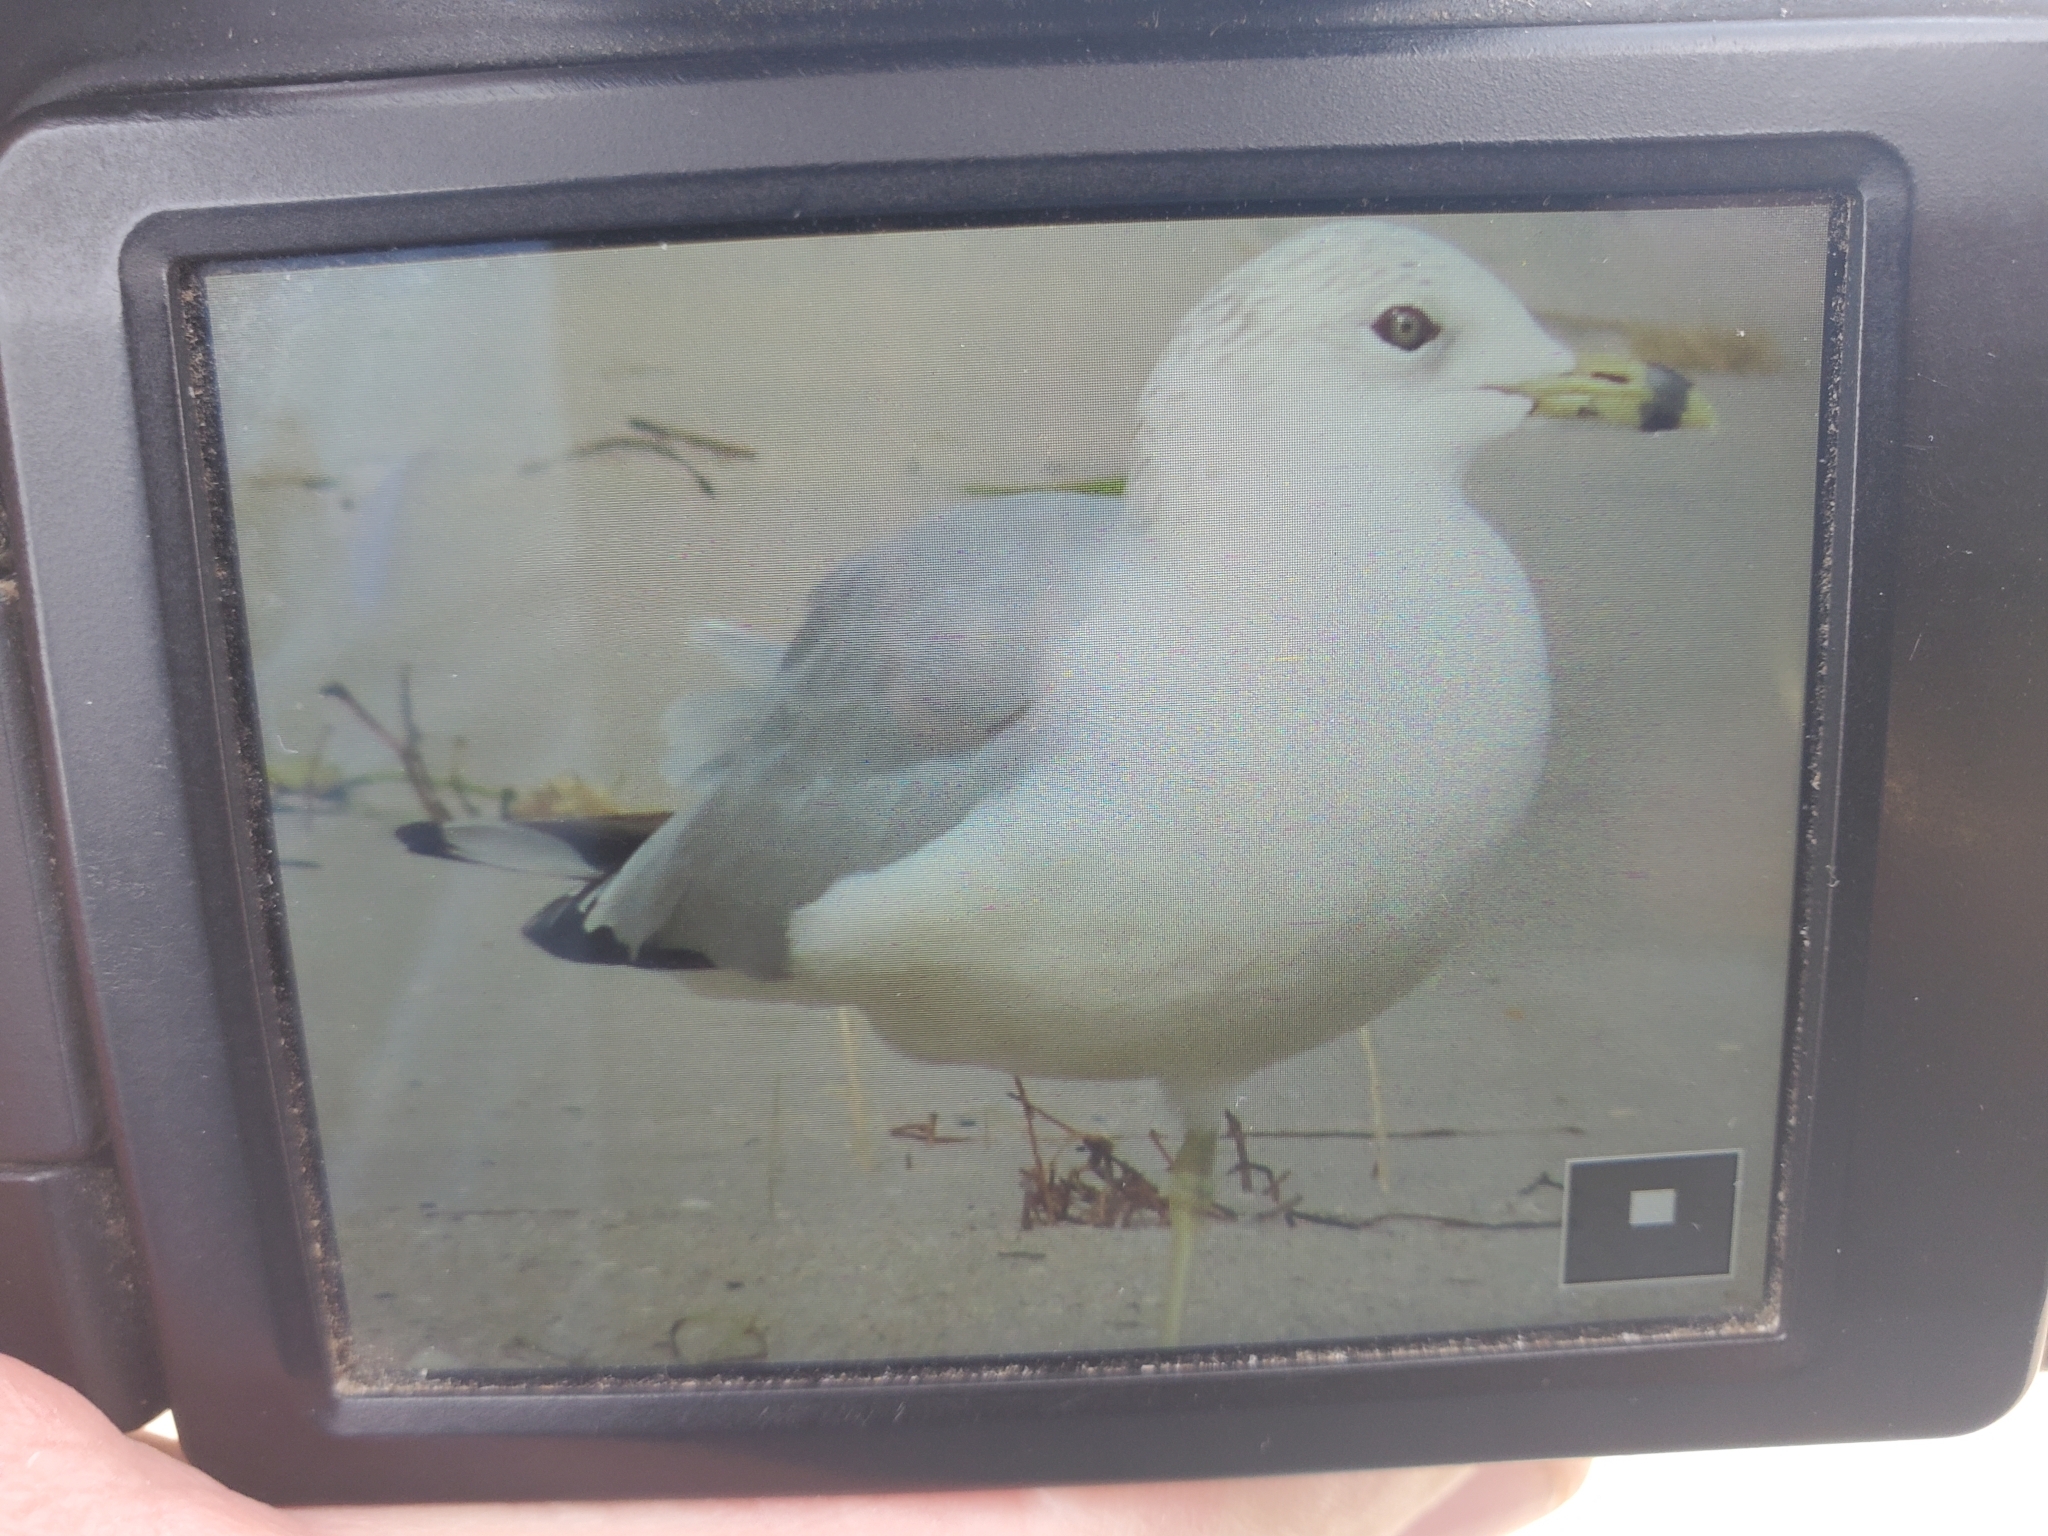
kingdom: Animalia
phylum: Chordata
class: Aves
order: Charadriiformes
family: Laridae
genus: Larus
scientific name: Larus delawarensis
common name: Ring-billed gull
